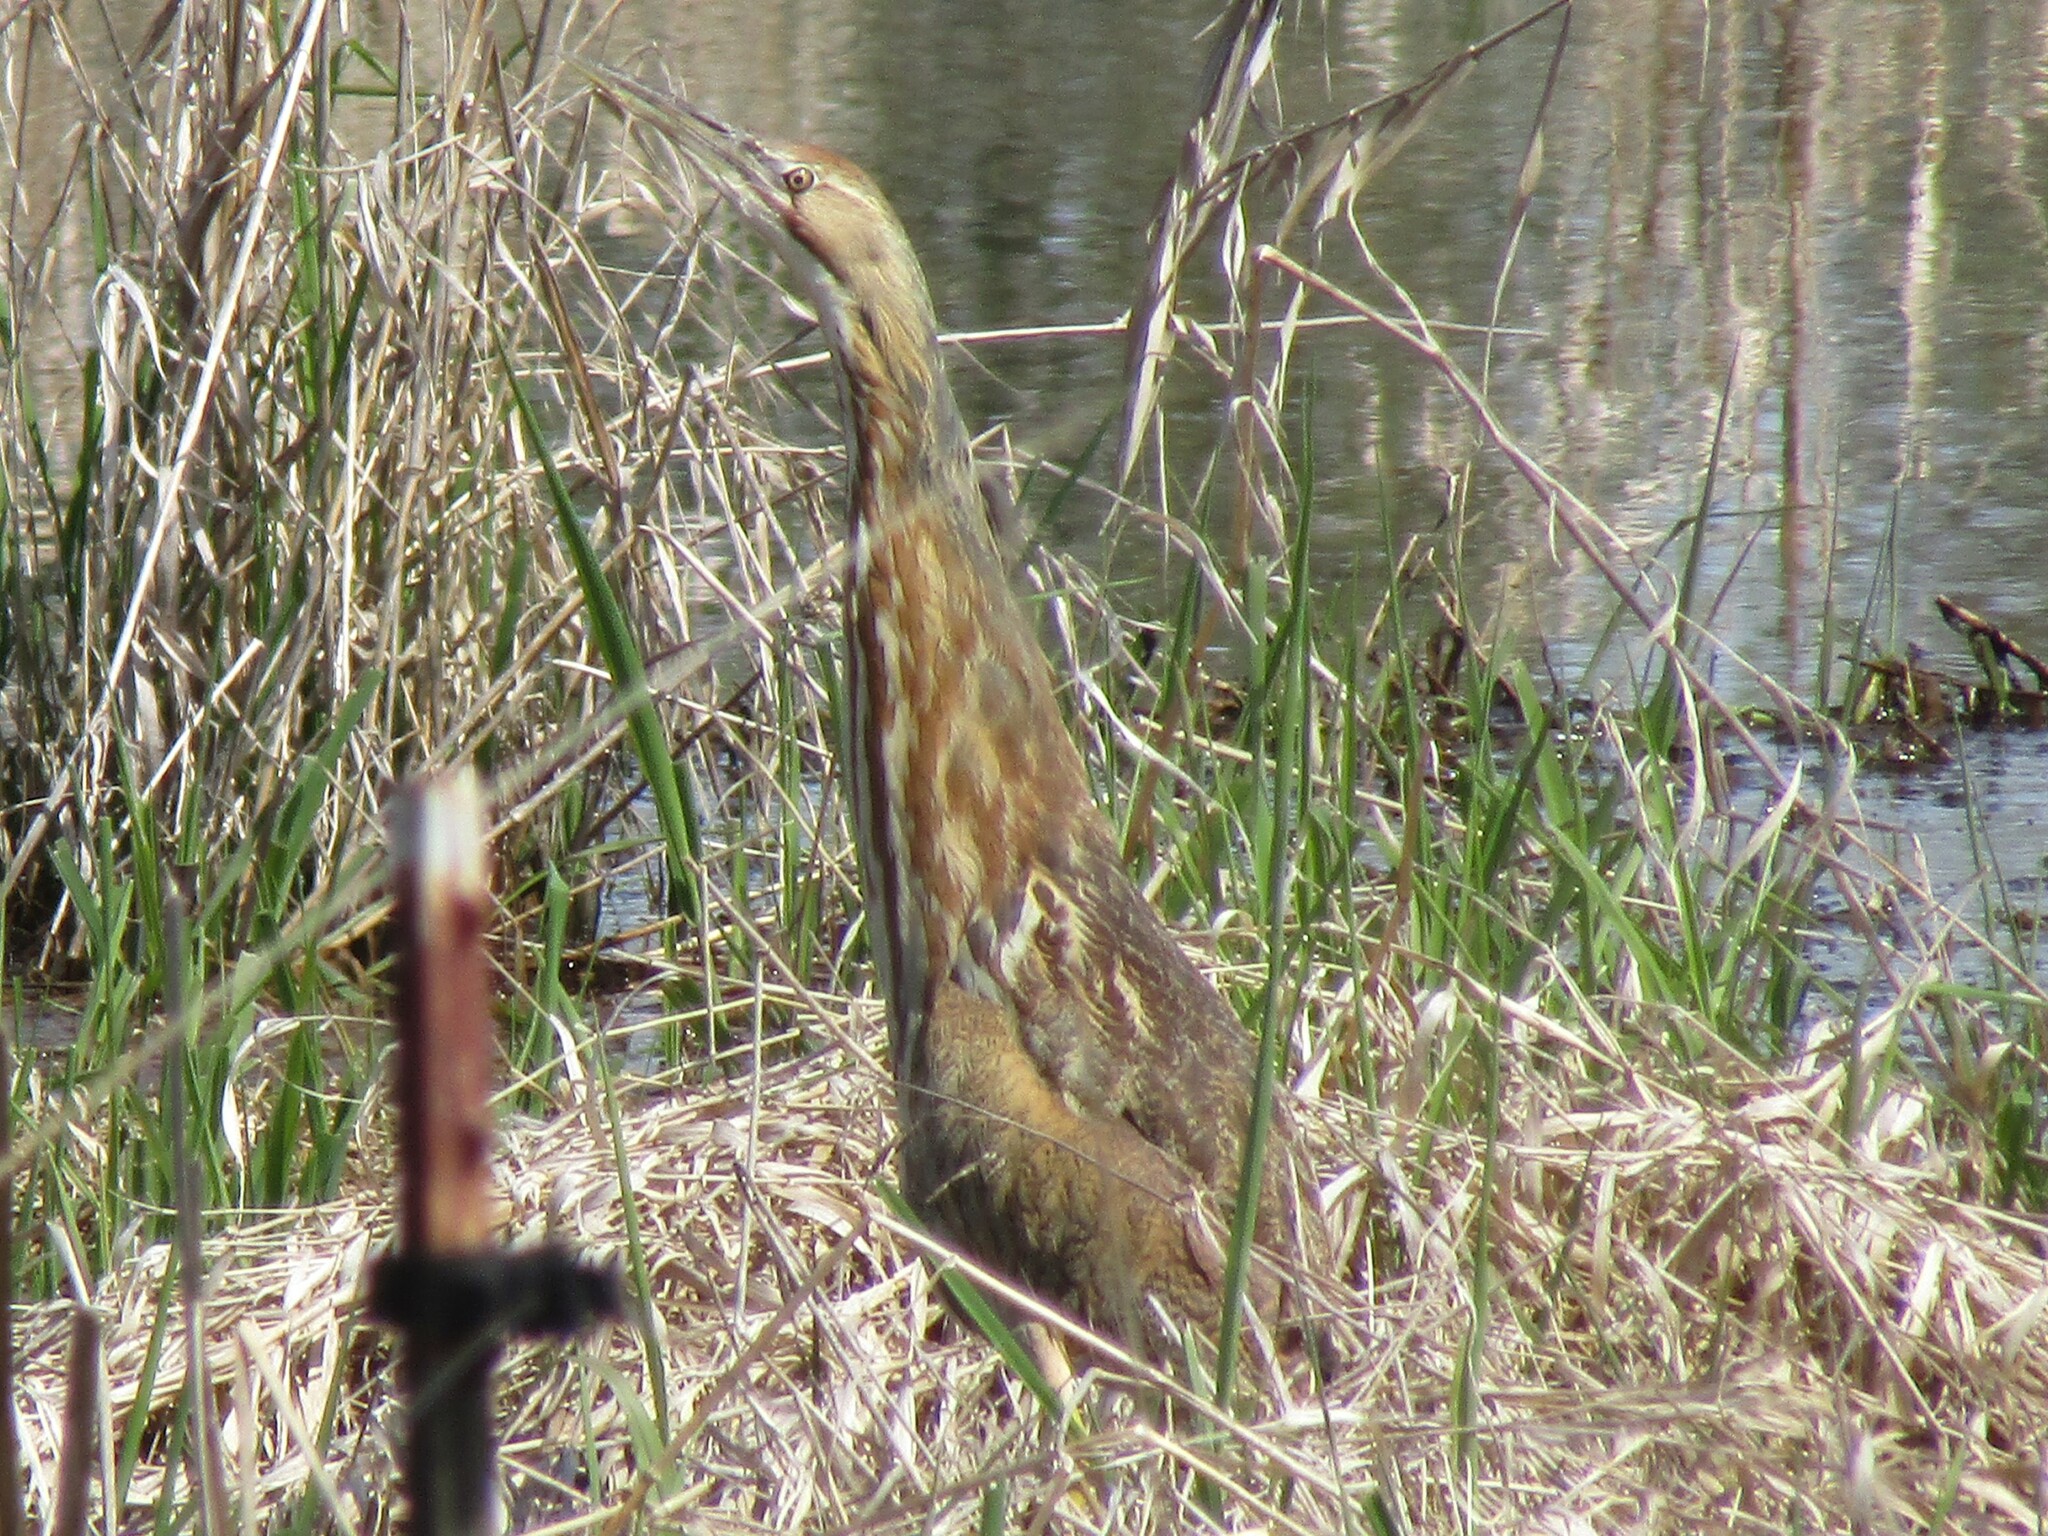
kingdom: Animalia
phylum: Chordata
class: Aves
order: Pelecaniformes
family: Ardeidae
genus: Botaurus
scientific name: Botaurus lentiginosus
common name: American bittern
